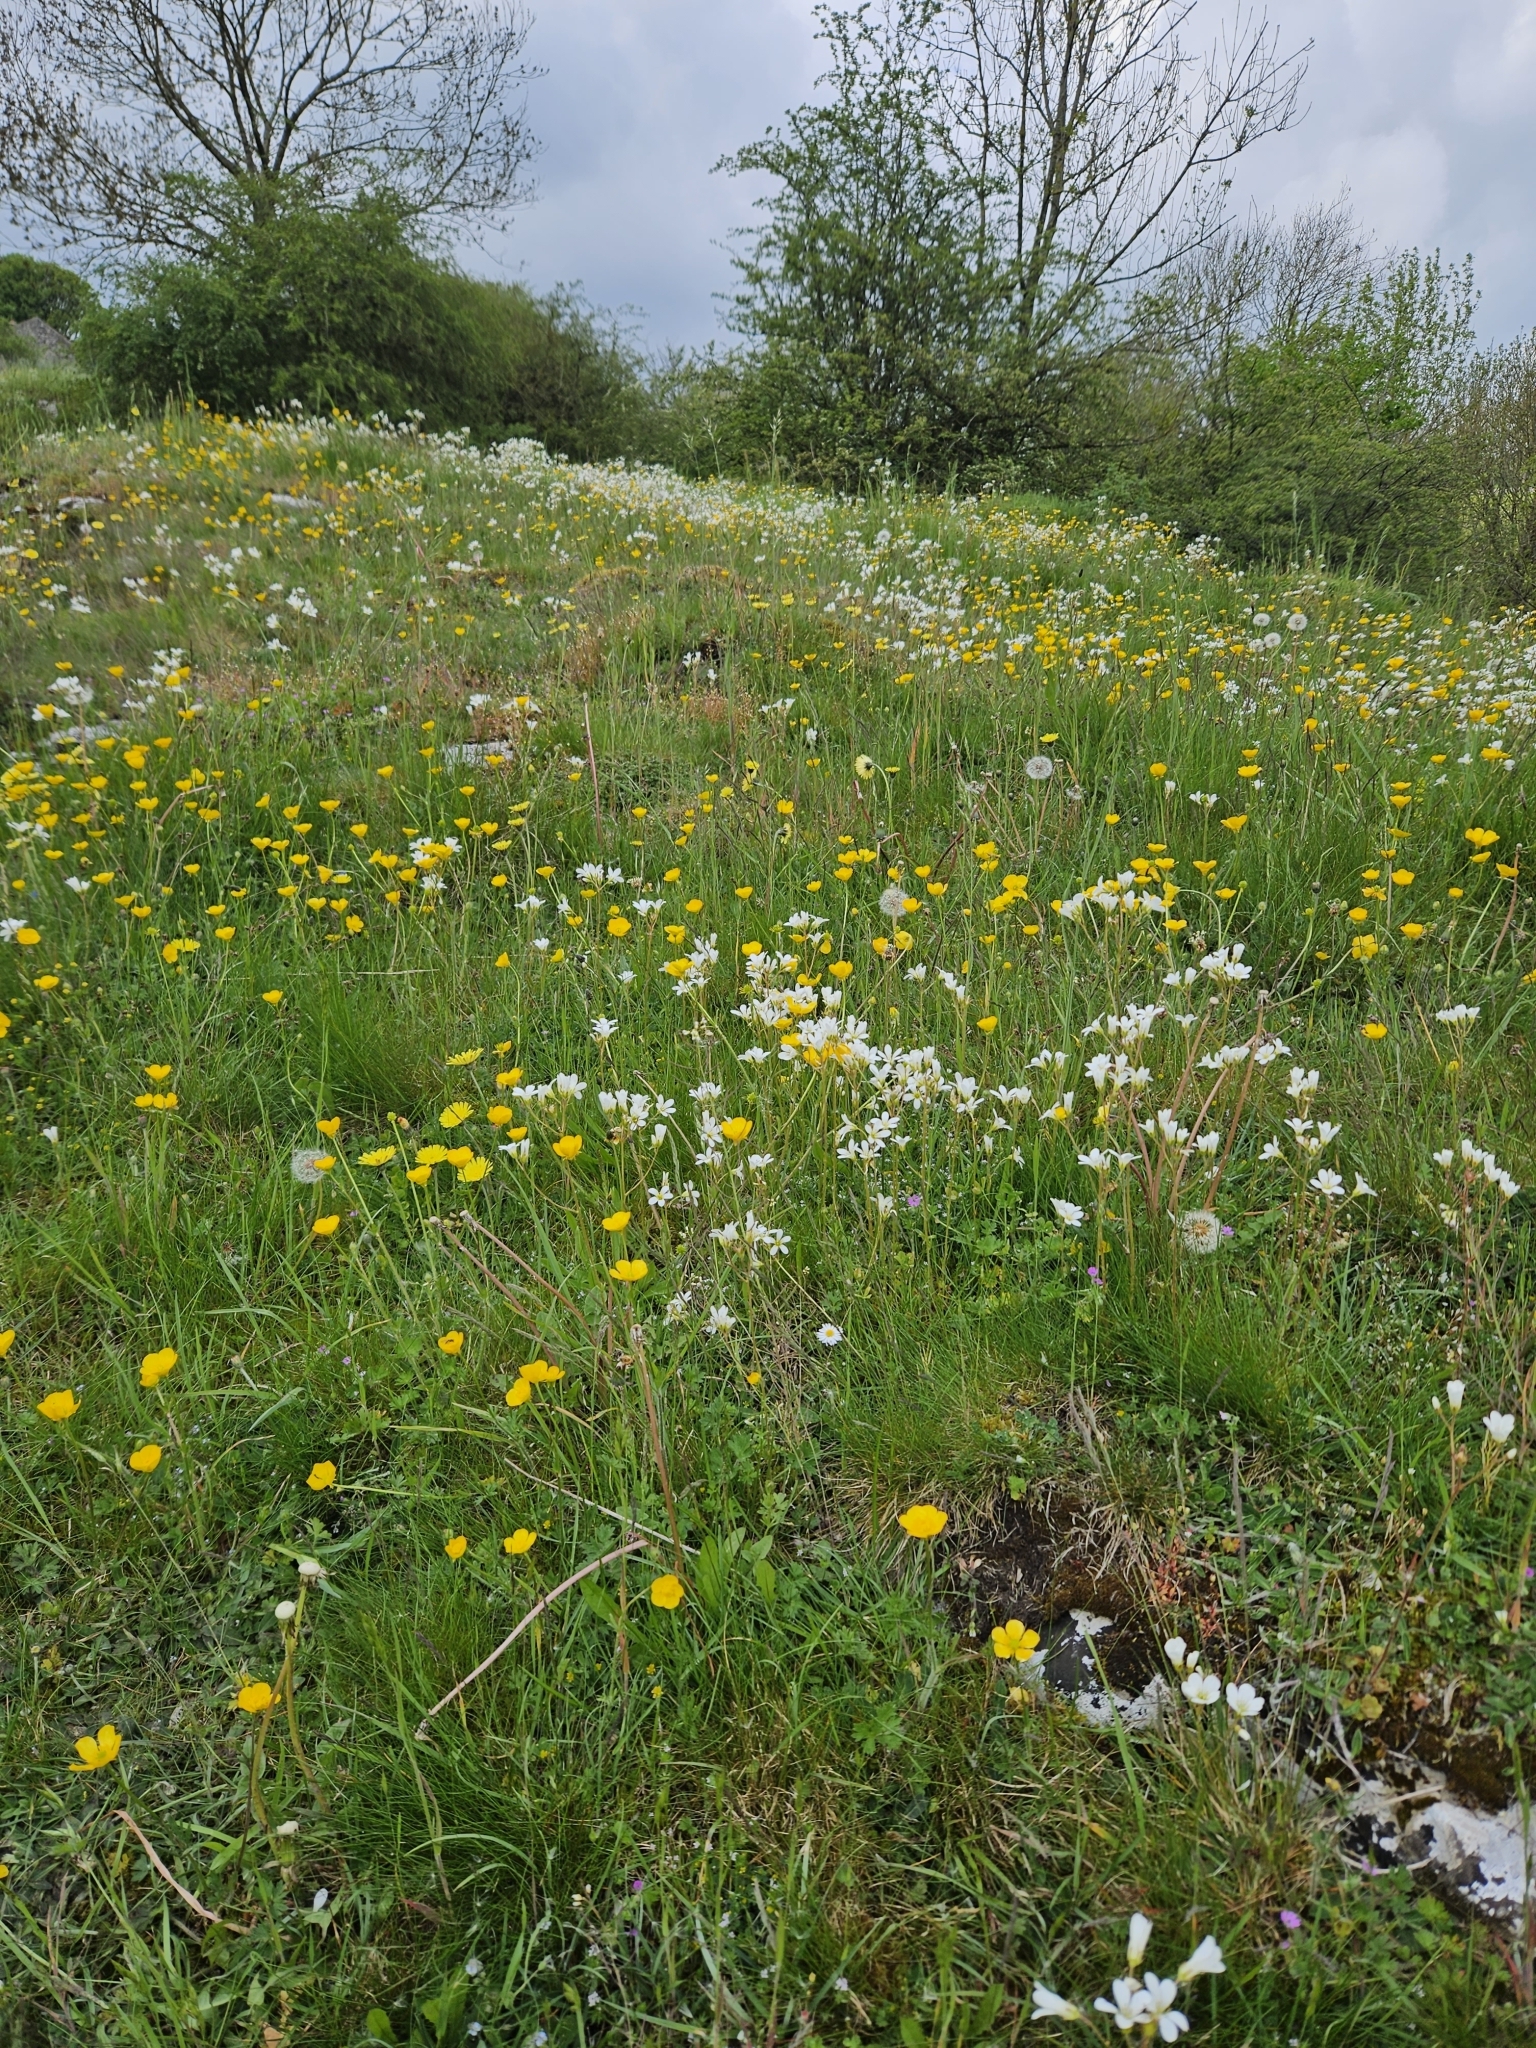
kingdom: Plantae
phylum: Tracheophyta
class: Magnoliopsida
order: Saxifragales
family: Saxifragaceae
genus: Saxifraga
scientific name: Saxifraga granulata
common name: Meadow saxifrage
